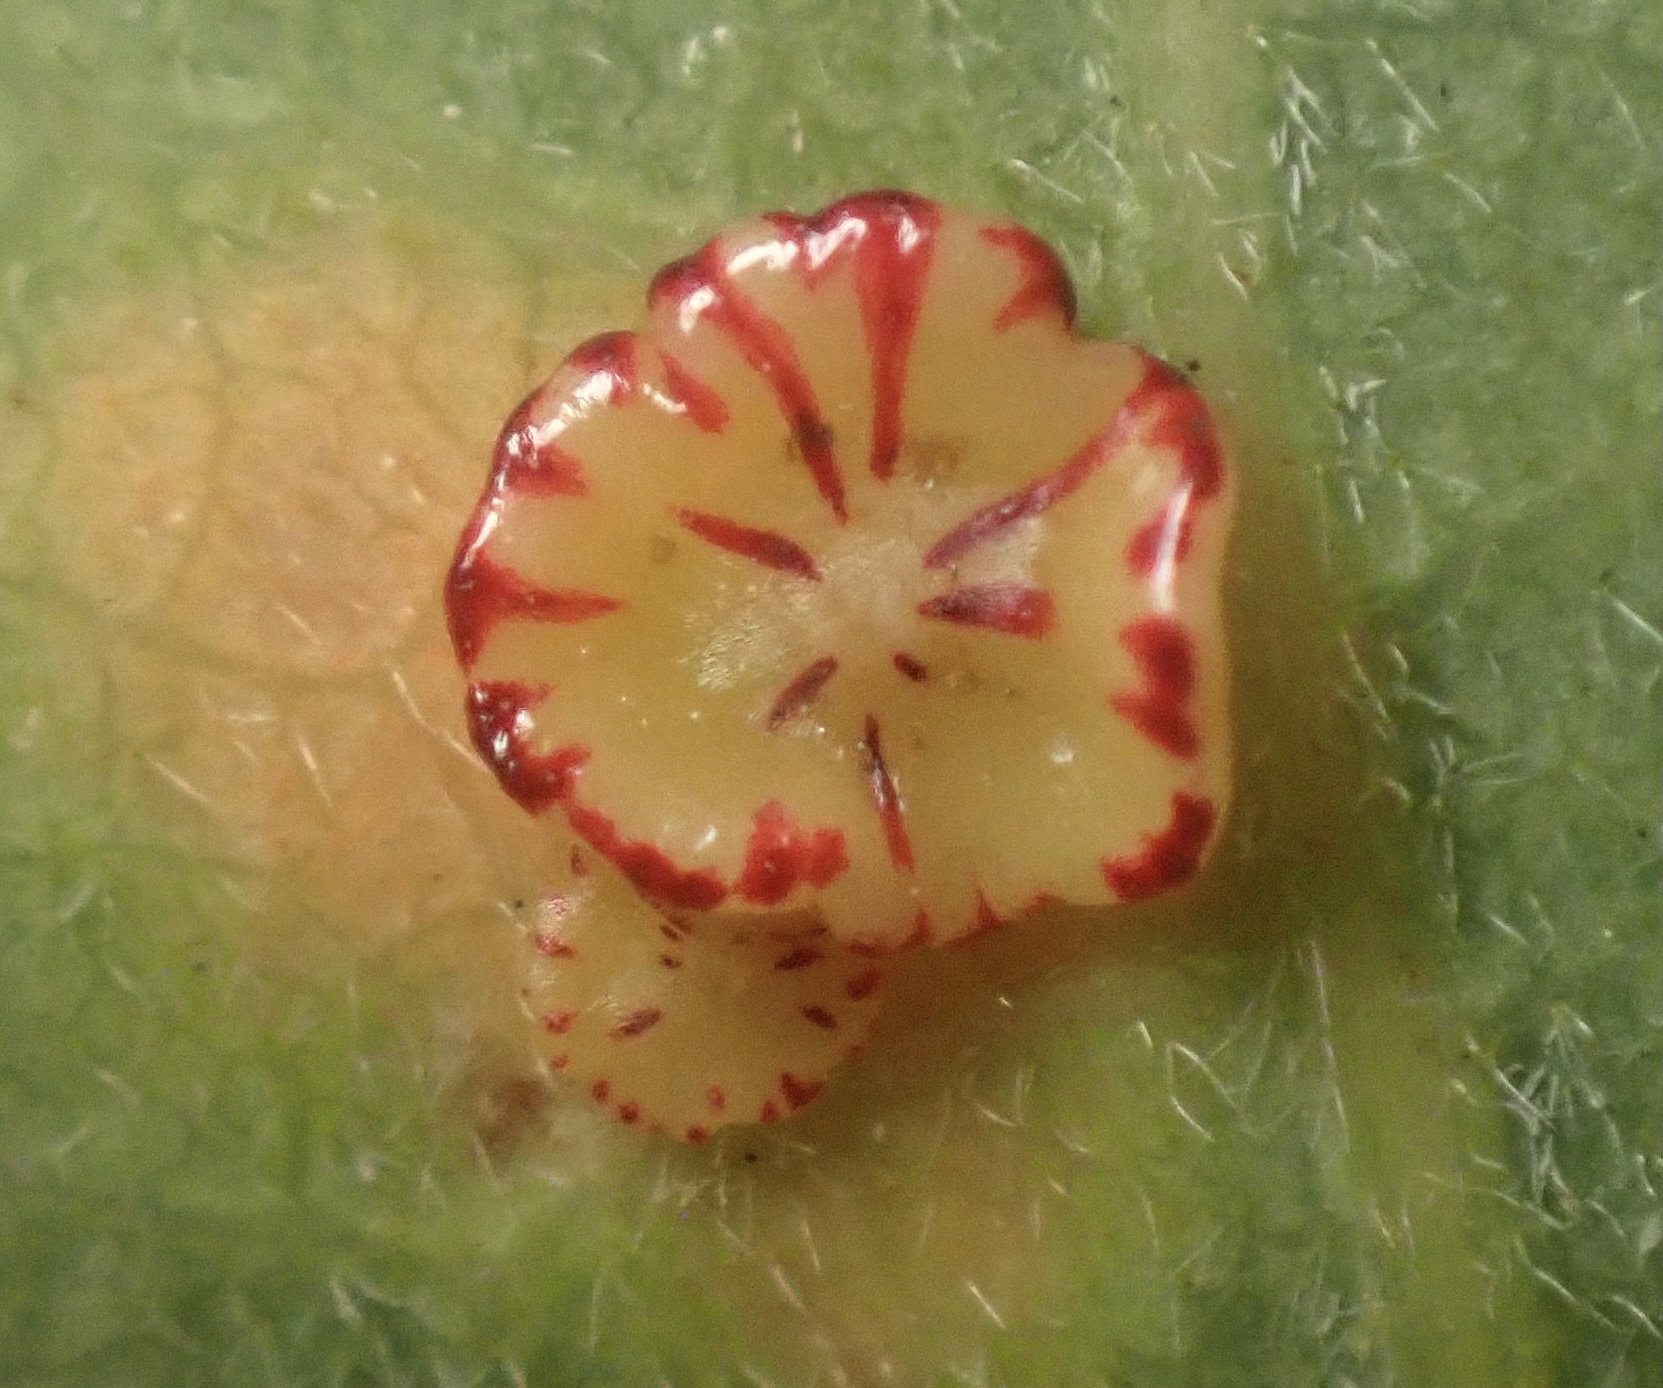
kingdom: Animalia
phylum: Arthropoda
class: Insecta
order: Hymenoptera
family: Cynipidae
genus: Andricus
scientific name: Andricus
